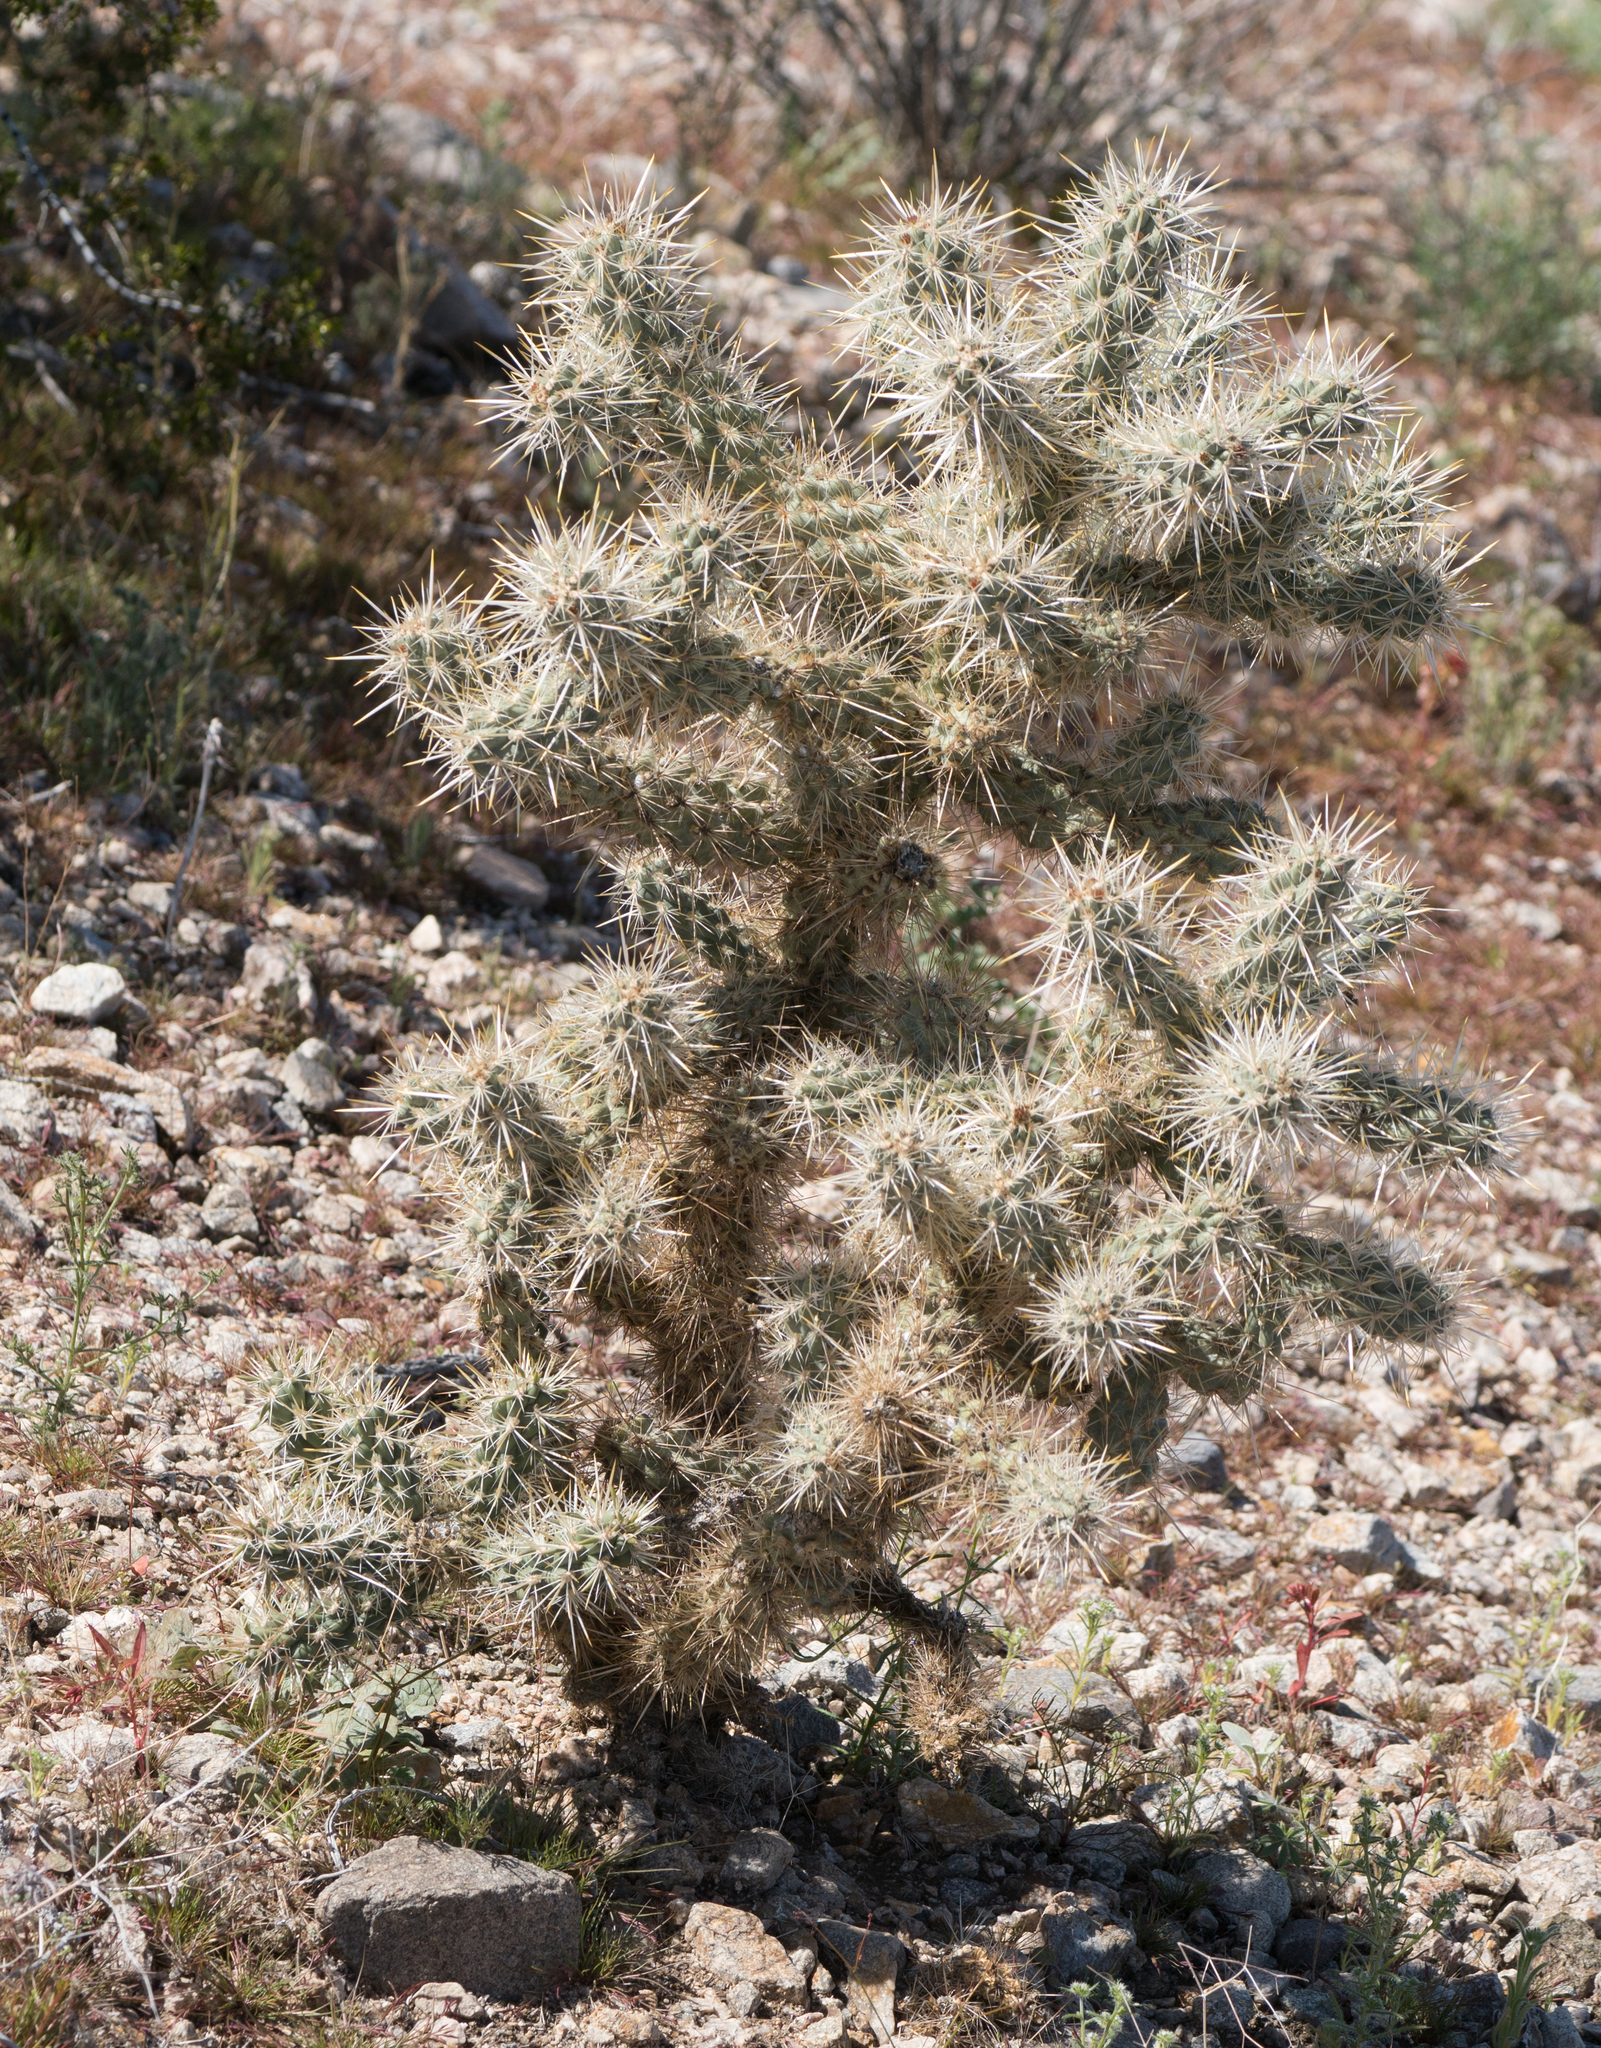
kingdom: Plantae
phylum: Tracheophyta
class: Magnoliopsida
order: Caryophyllales
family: Cactaceae
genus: Cylindropuntia
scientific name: Cylindropuntia echinocarpa
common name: Ground cholla
